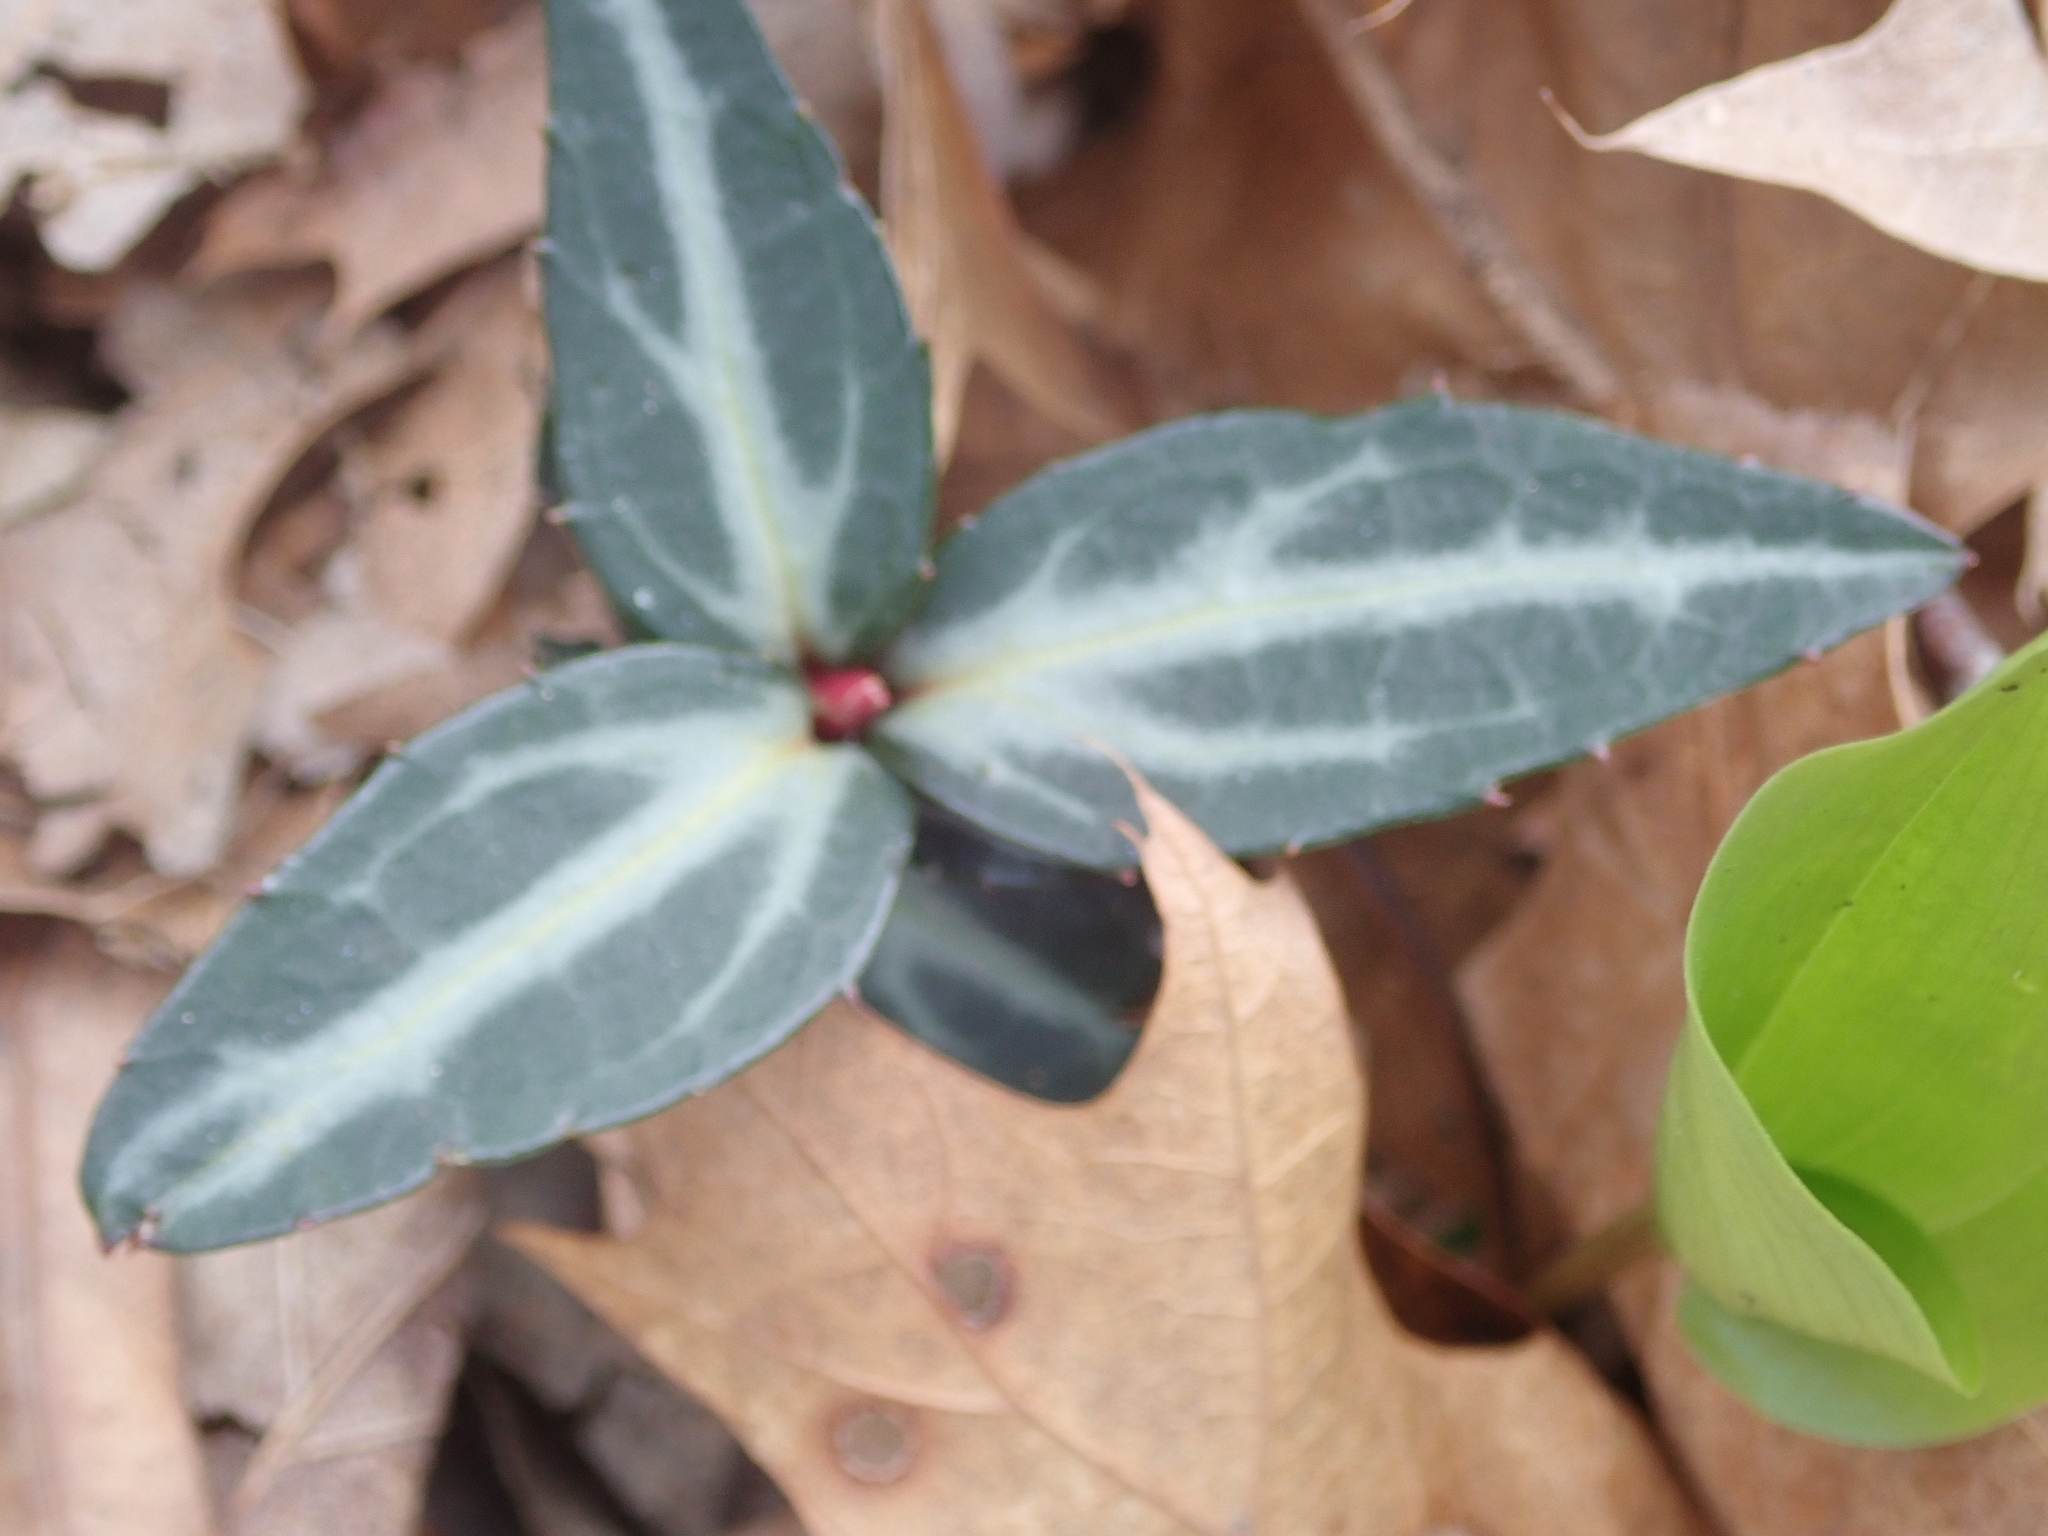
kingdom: Plantae
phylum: Tracheophyta
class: Magnoliopsida
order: Ericales
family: Ericaceae
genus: Chimaphila
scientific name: Chimaphila maculata
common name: Spotted pipsissewa
